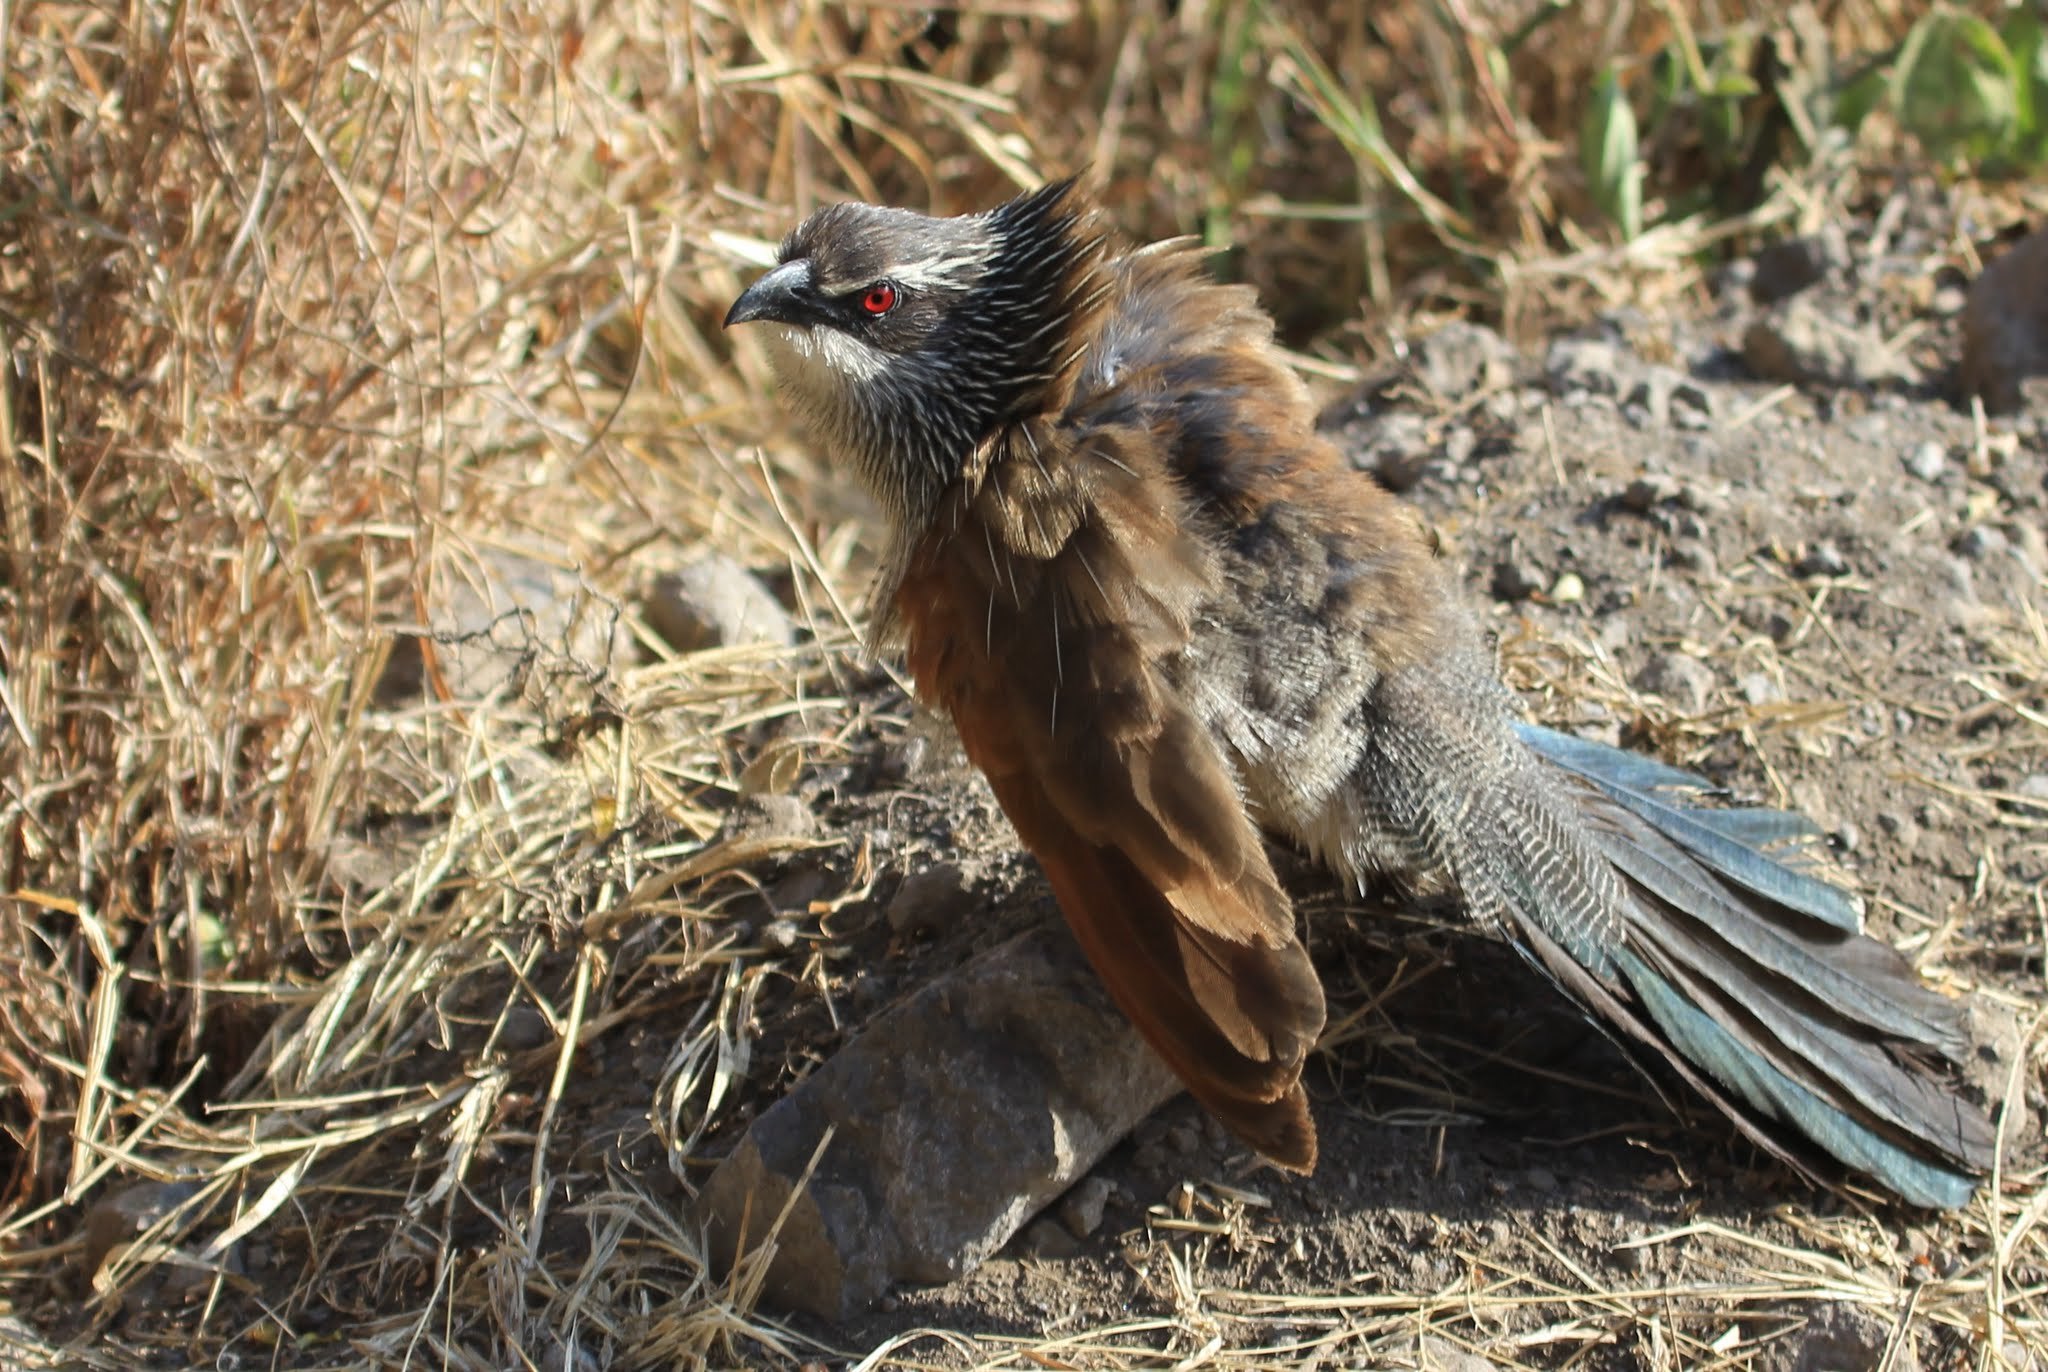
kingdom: Animalia
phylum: Chordata
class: Aves
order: Cuculiformes
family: Cuculidae
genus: Centropus
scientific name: Centropus superciliosus
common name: White-browed coucal
